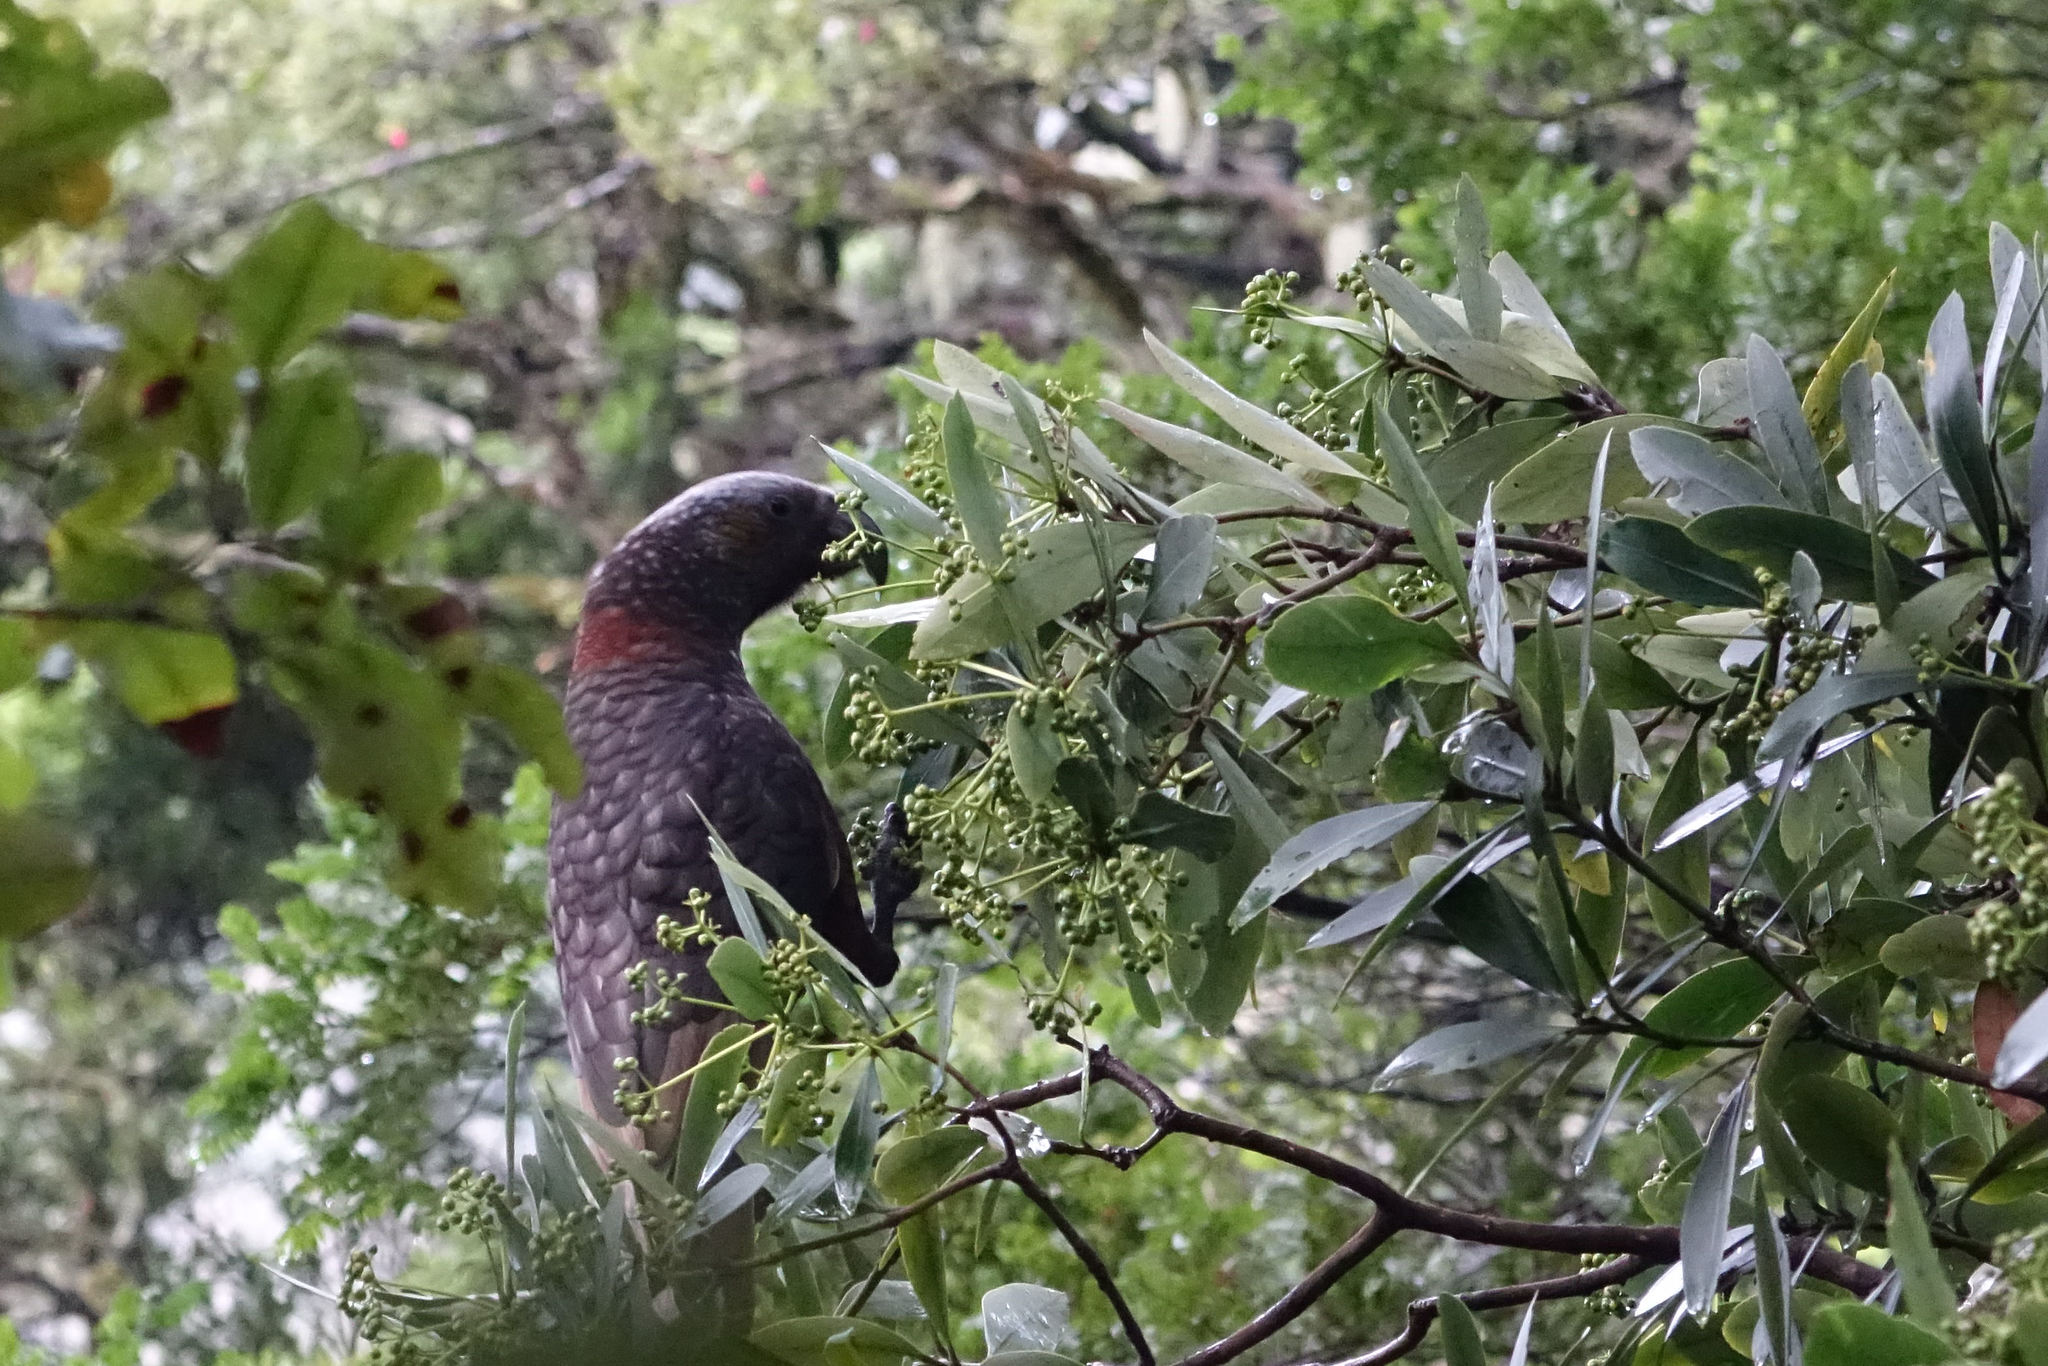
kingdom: Animalia
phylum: Chordata
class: Aves
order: Psittaciformes
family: Psittacidae
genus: Nestor
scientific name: Nestor meridionalis
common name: New zealand kaka
